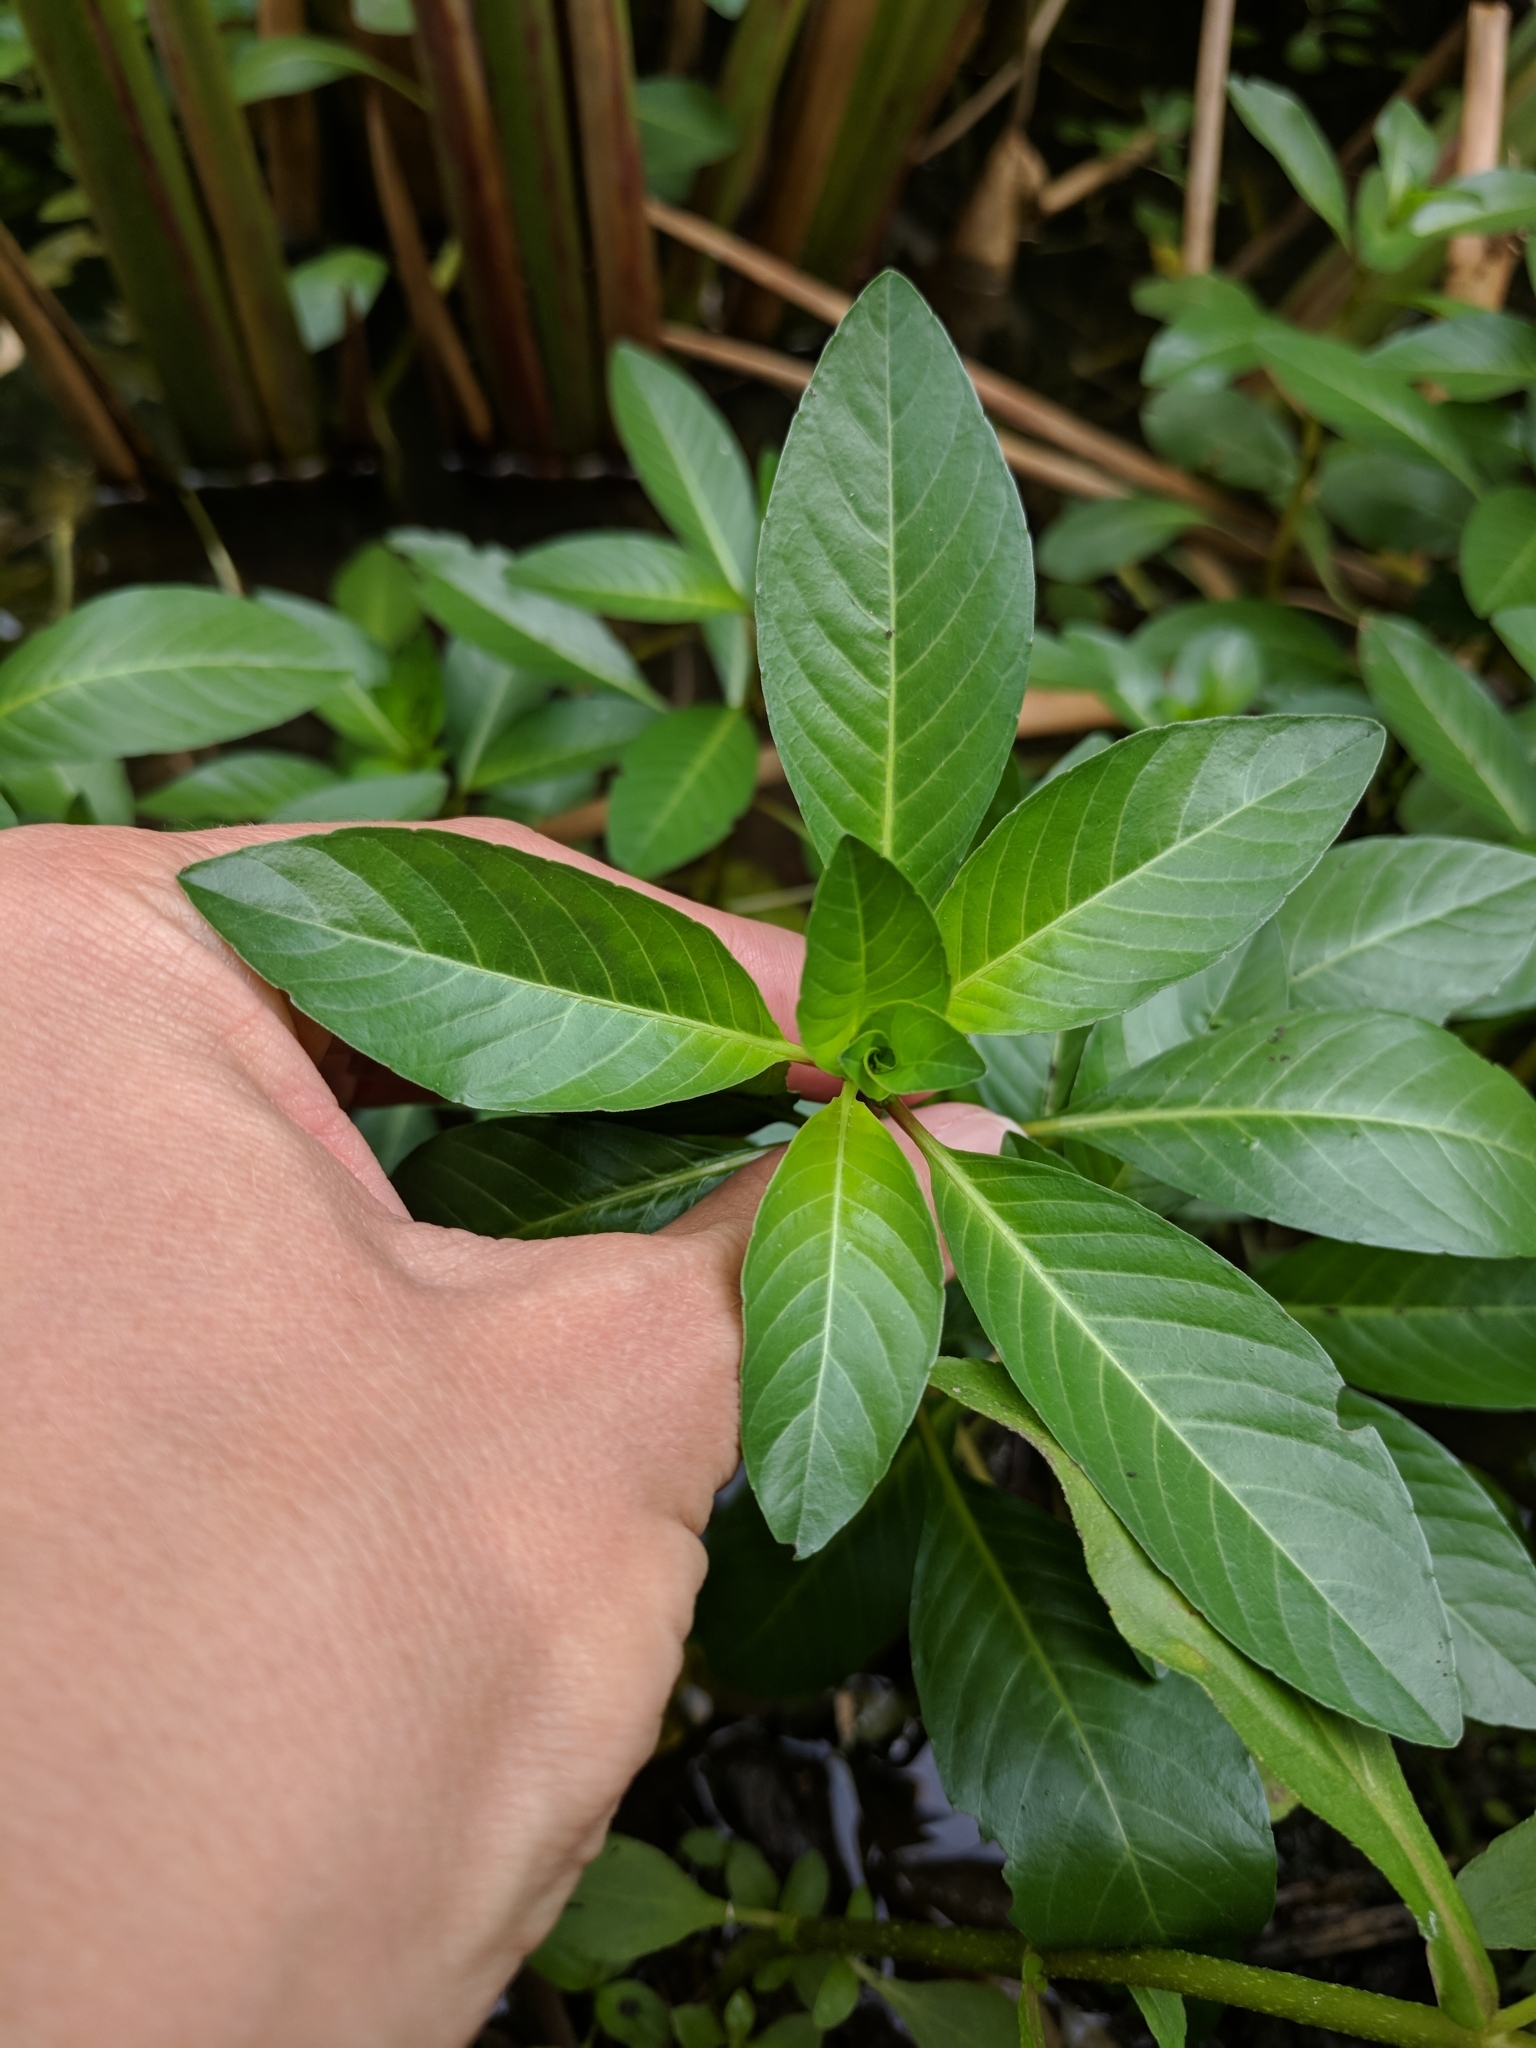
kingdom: Plantae
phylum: Tracheophyta
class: Magnoliopsida
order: Myrtales
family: Onagraceae
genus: Ludwigia
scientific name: Ludwigia peploides
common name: Floating primrose-willow
